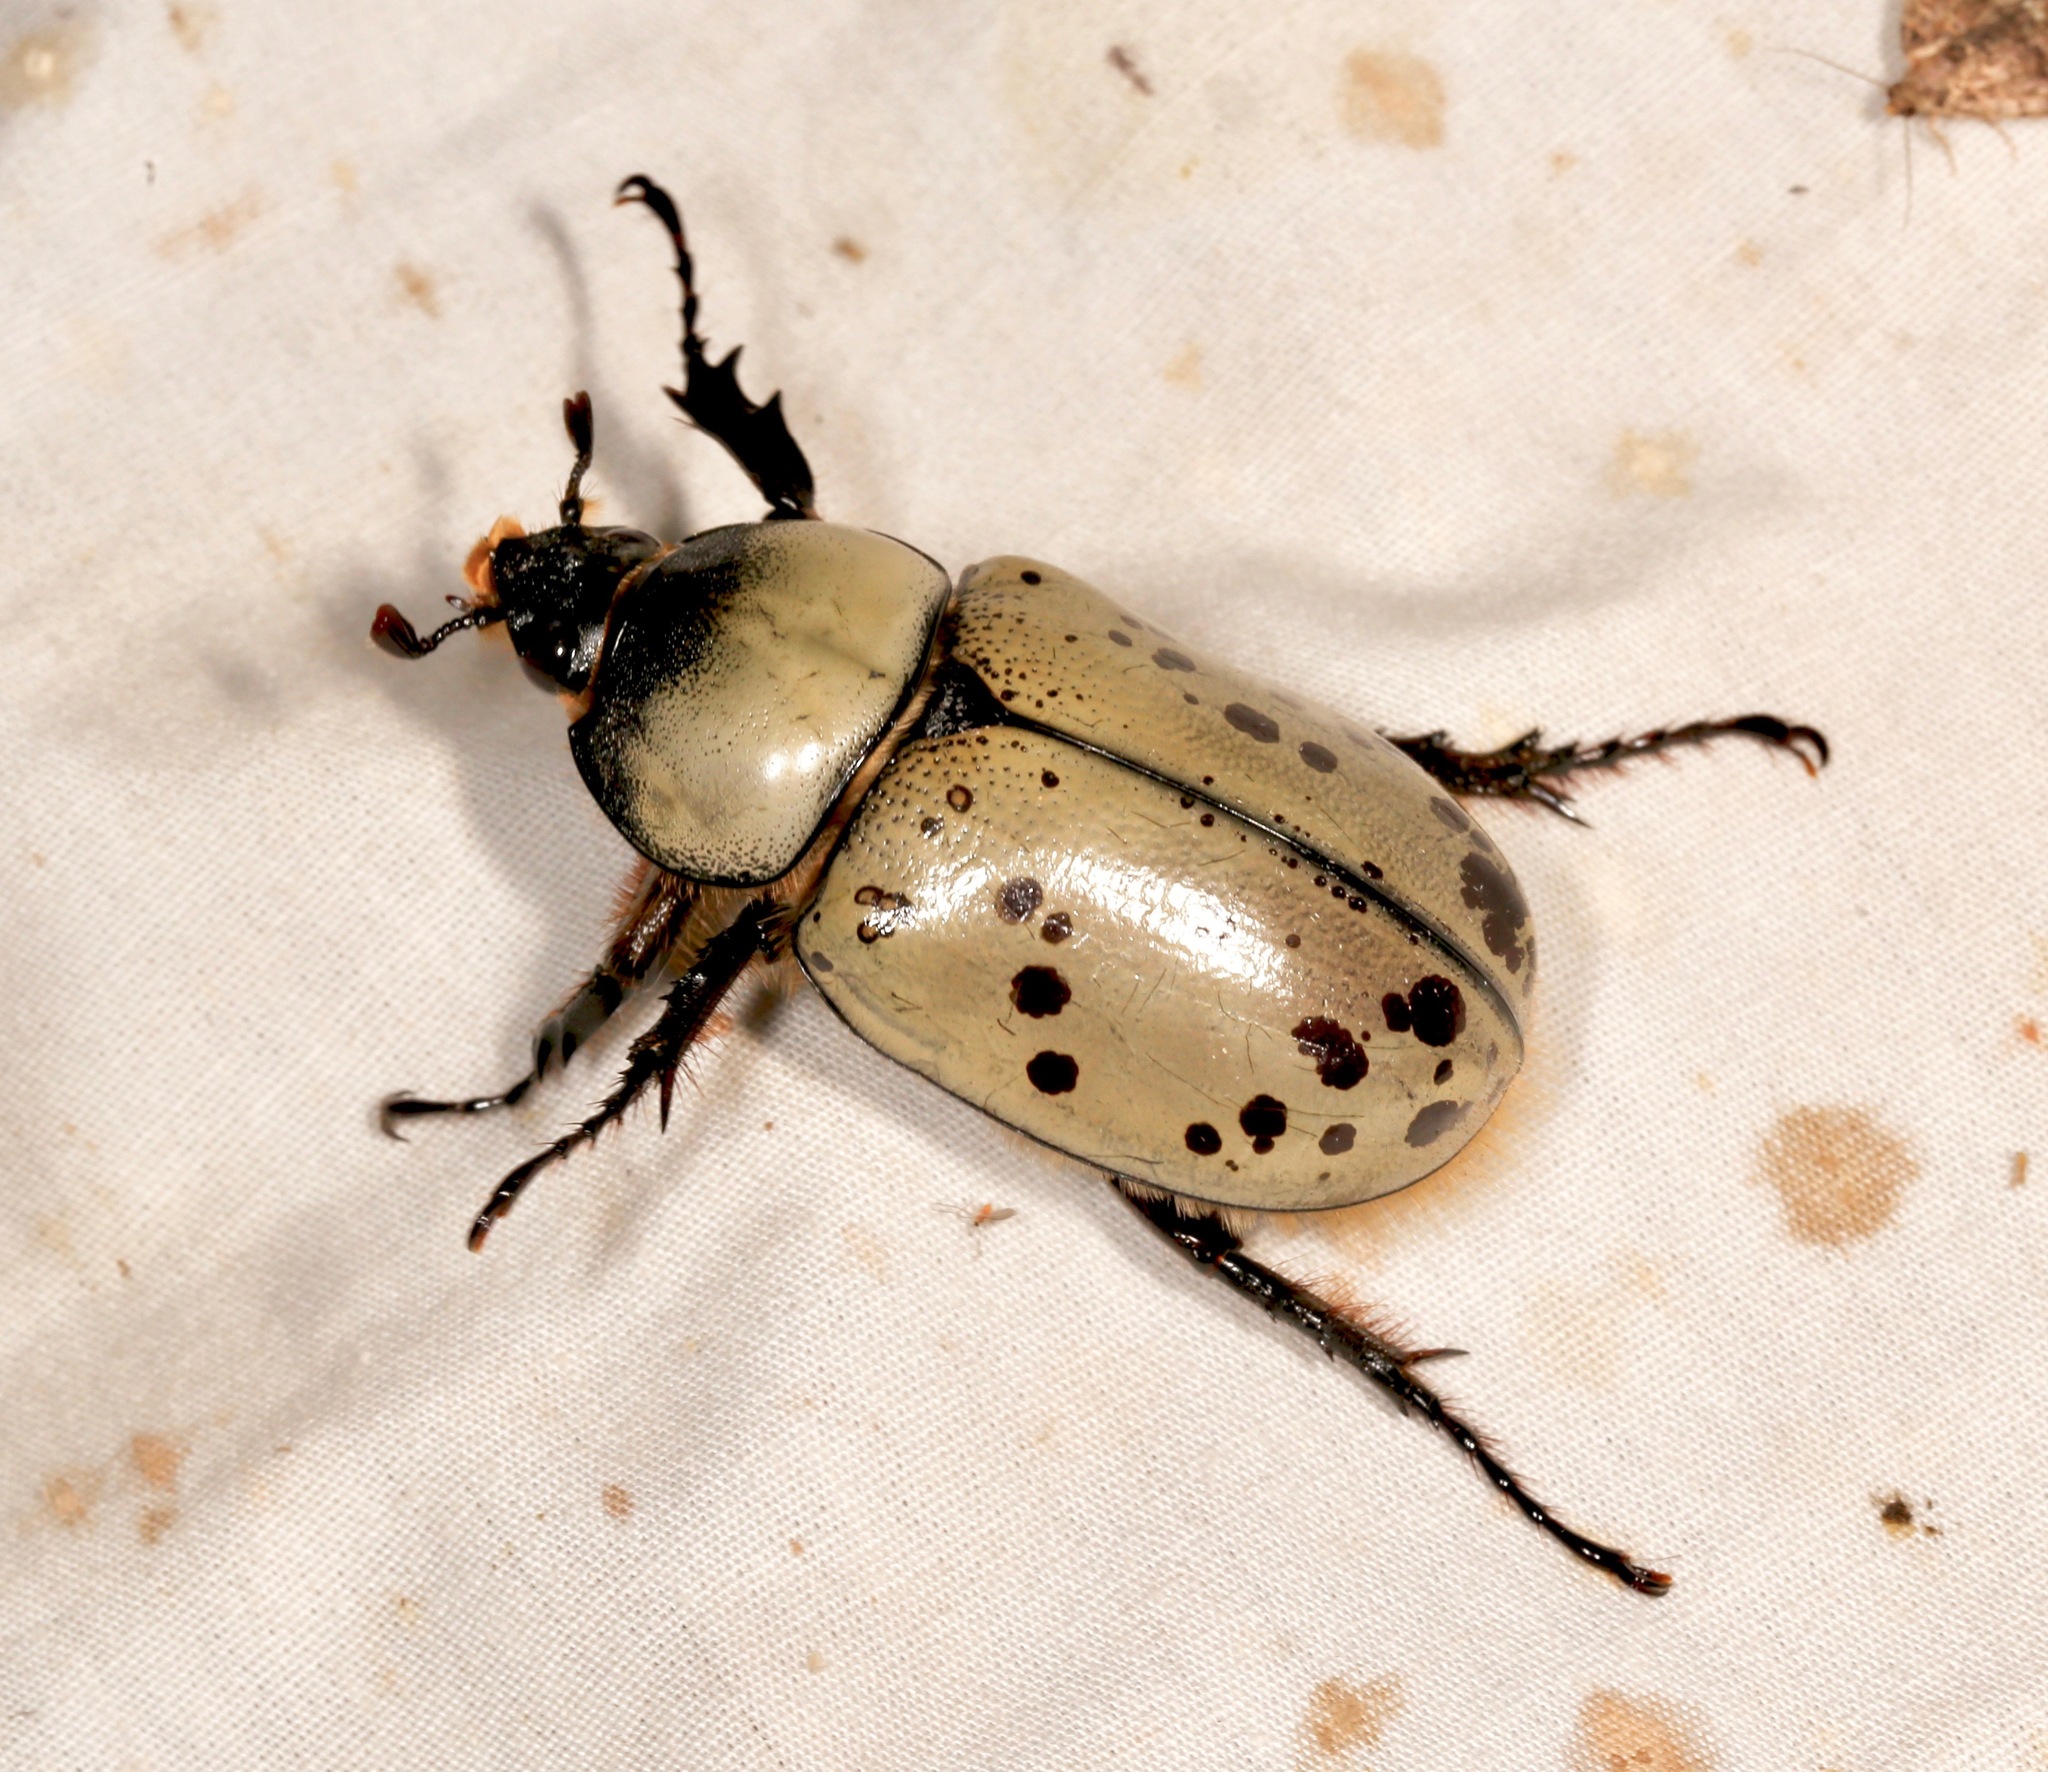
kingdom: Animalia
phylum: Arthropoda
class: Insecta
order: Coleoptera
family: Scarabaeidae
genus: Dynastes
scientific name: Dynastes grantii
